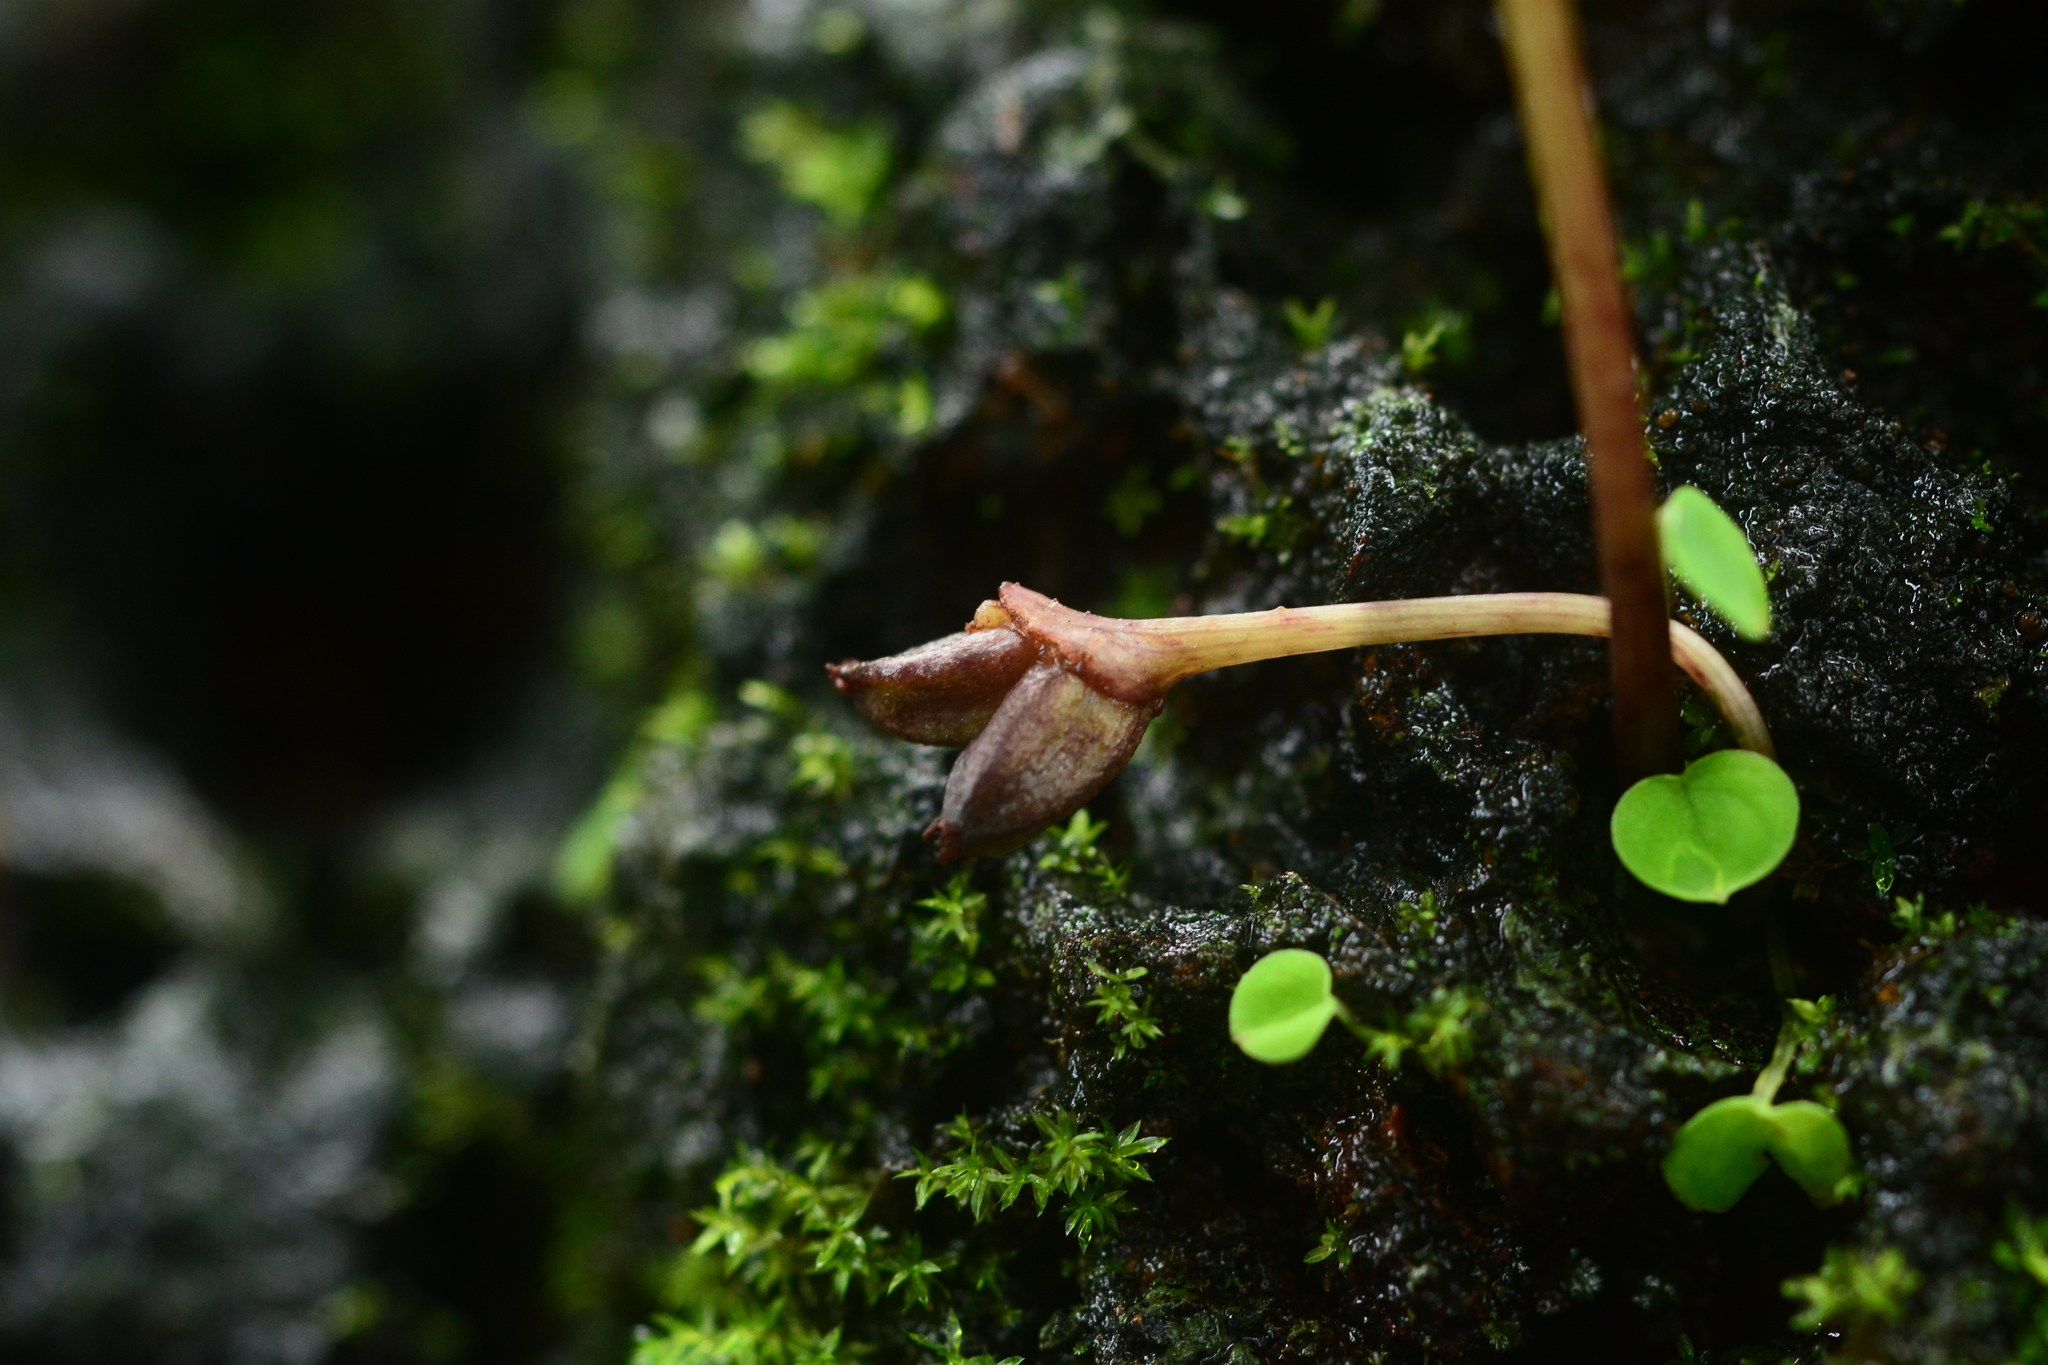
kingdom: Plantae
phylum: Tracheophyta
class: Liliopsida
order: Alismatales
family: Araceae
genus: Ariopsis
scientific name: Ariopsis peltata
